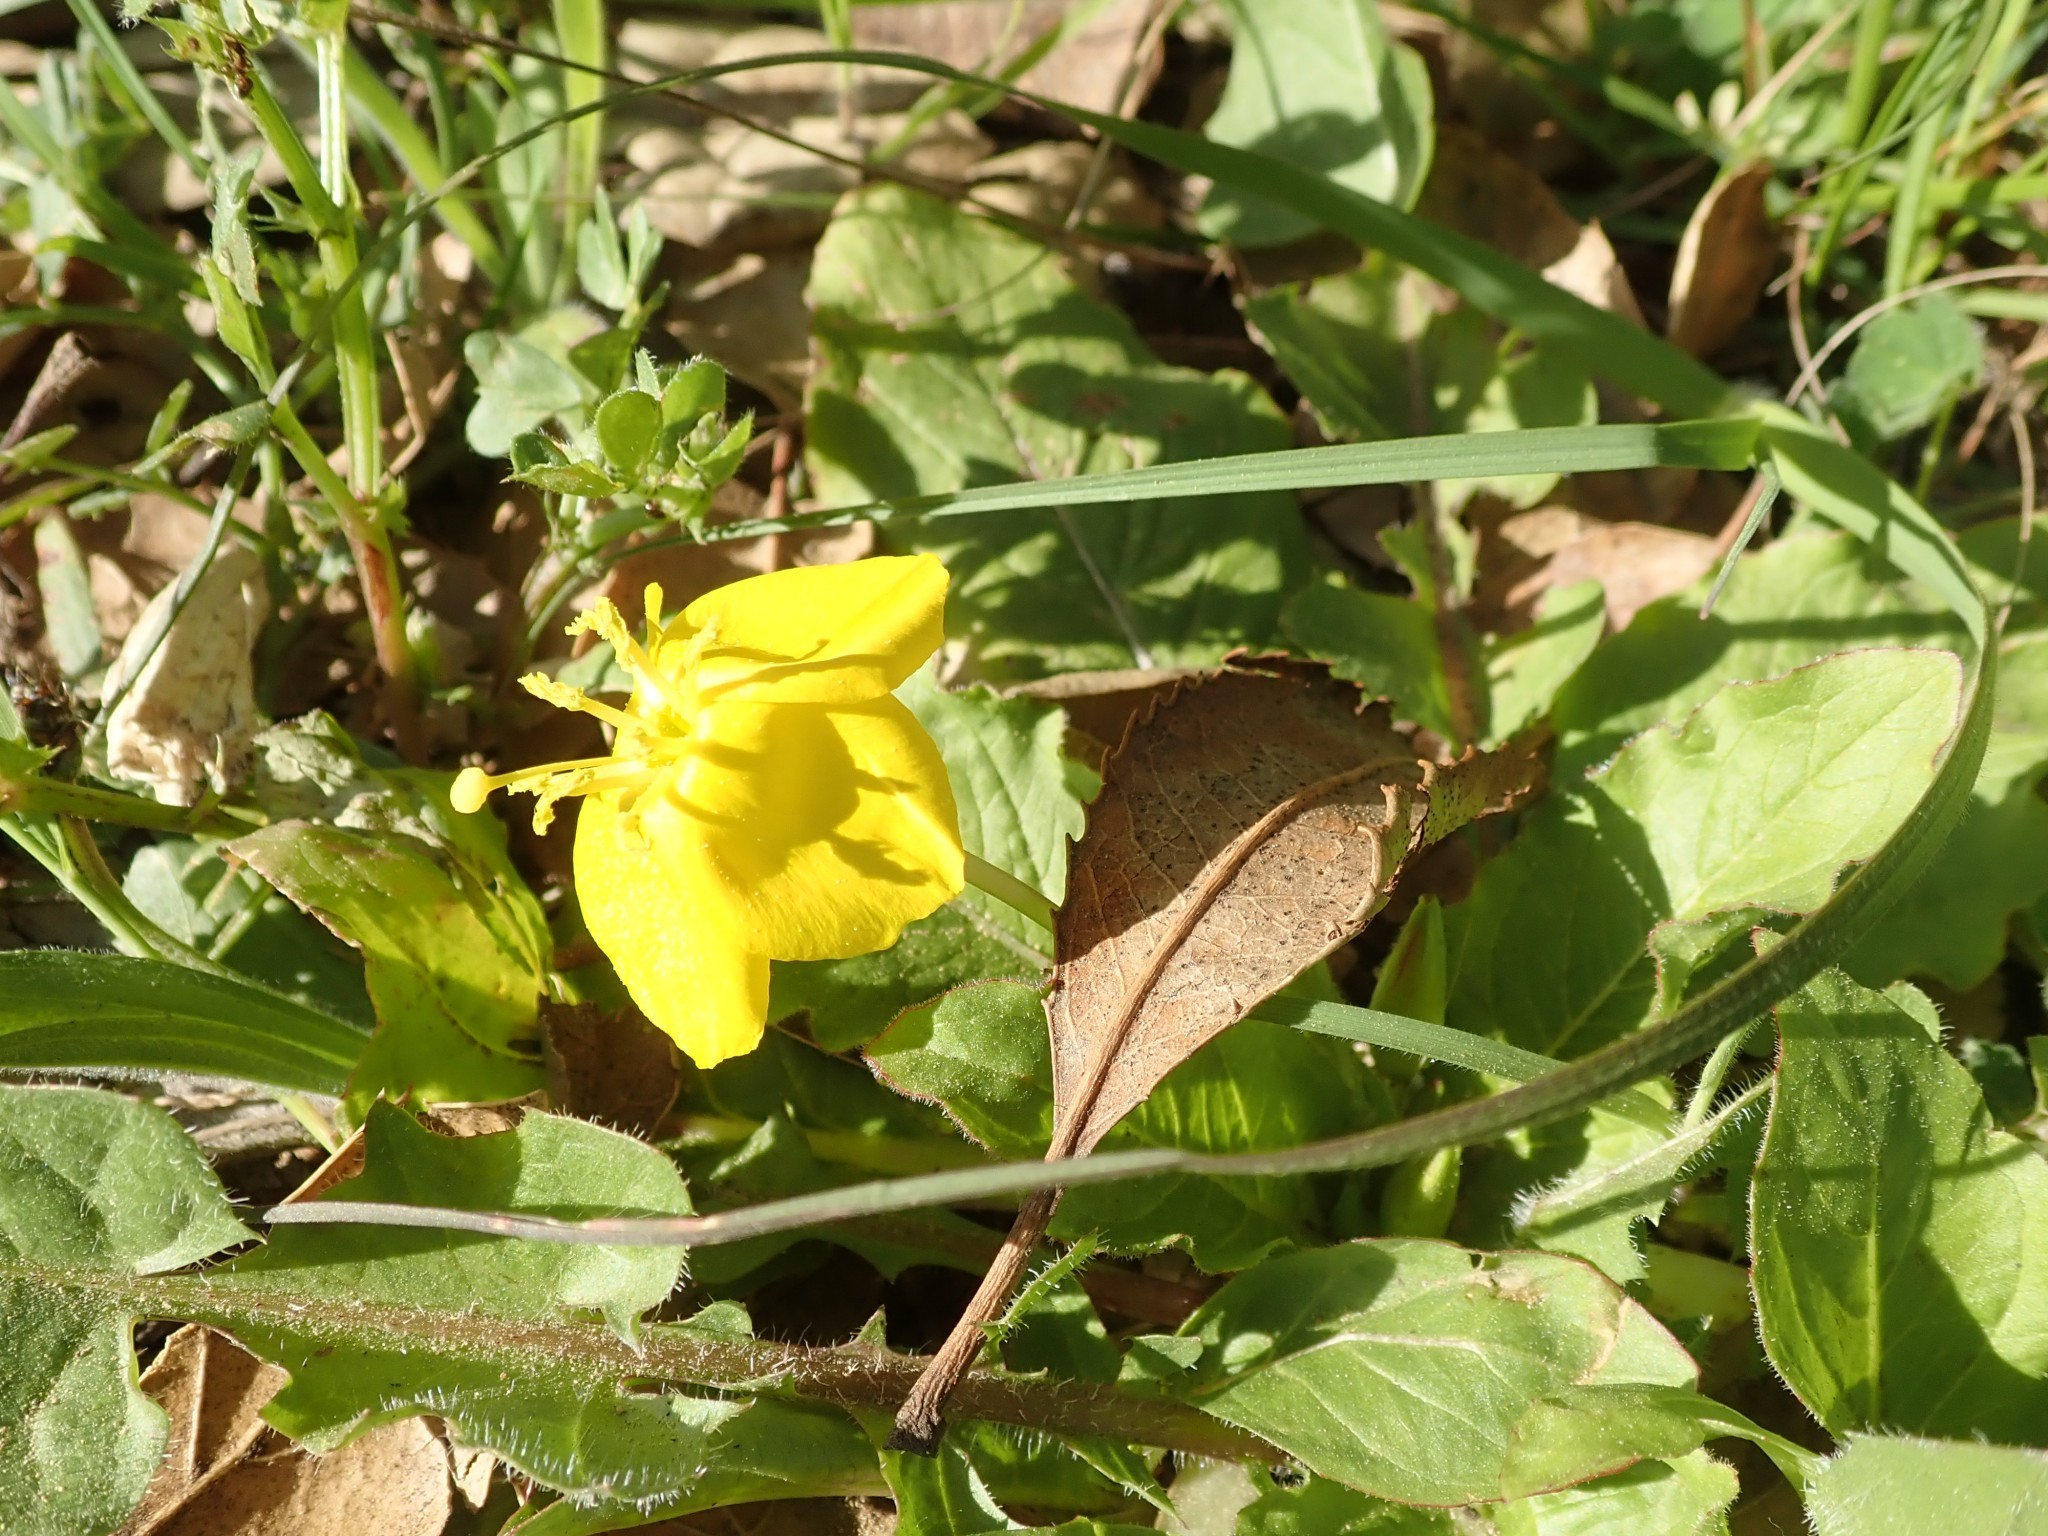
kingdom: Plantae
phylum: Tracheophyta
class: Magnoliopsida
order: Myrtales
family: Onagraceae
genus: Taraxia
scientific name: Taraxia ovata
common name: Goldeneggs
